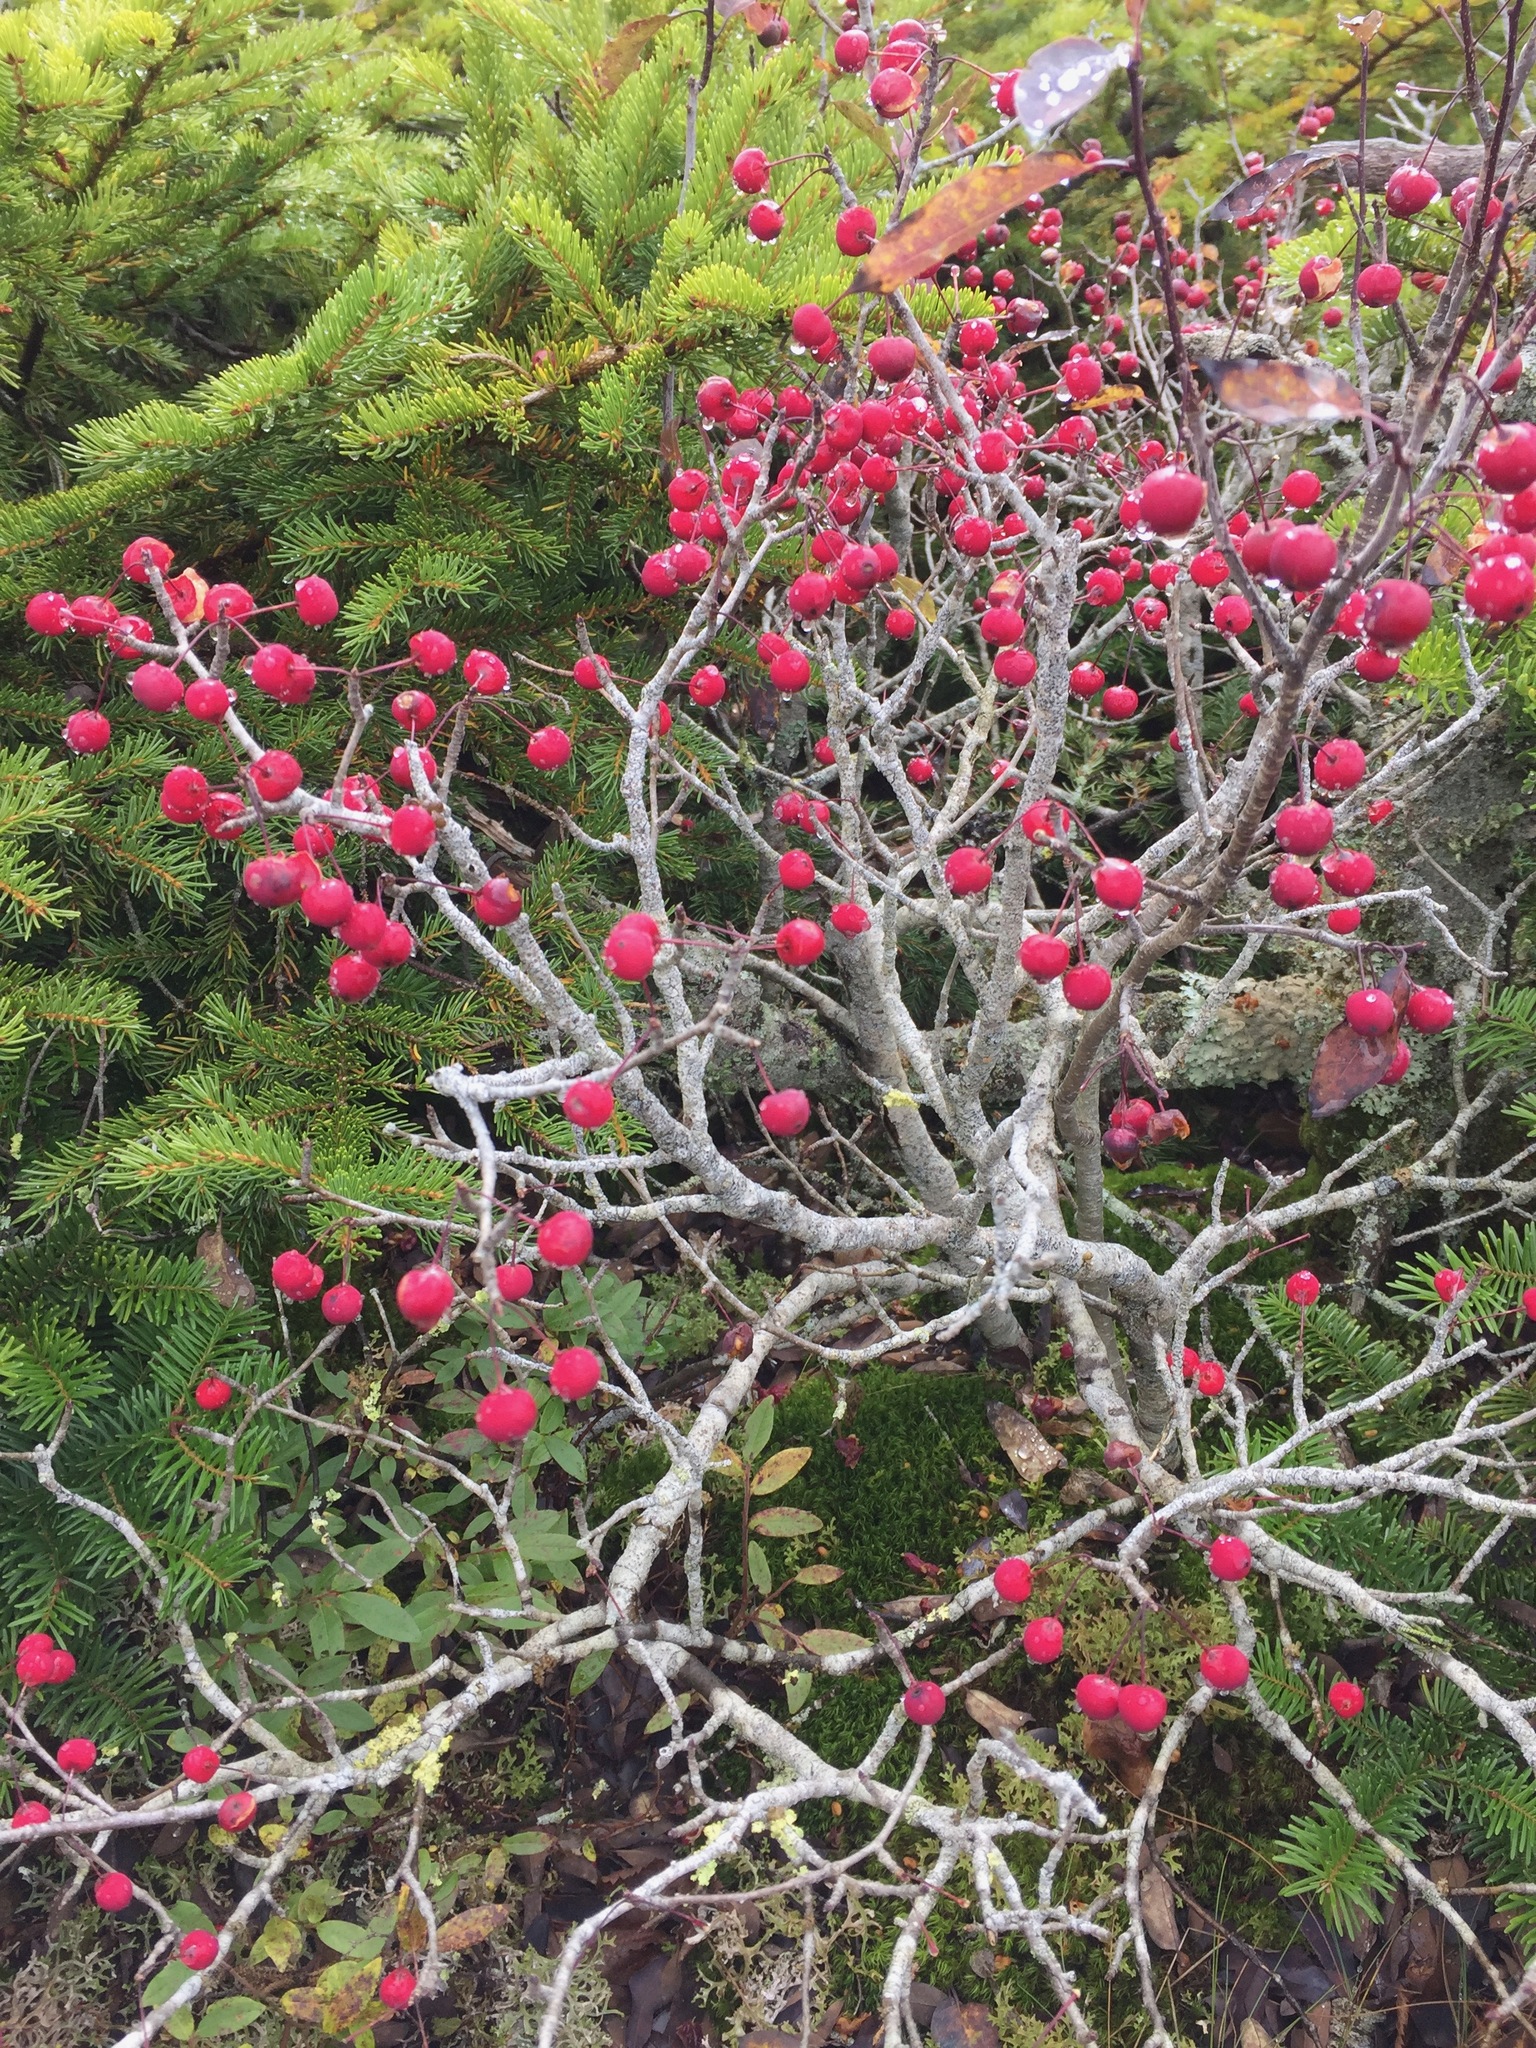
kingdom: Plantae
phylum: Tracheophyta
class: Magnoliopsida
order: Aquifoliales
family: Aquifoliaceae
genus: Ilex
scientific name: Ilex mucronata
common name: Catberry
